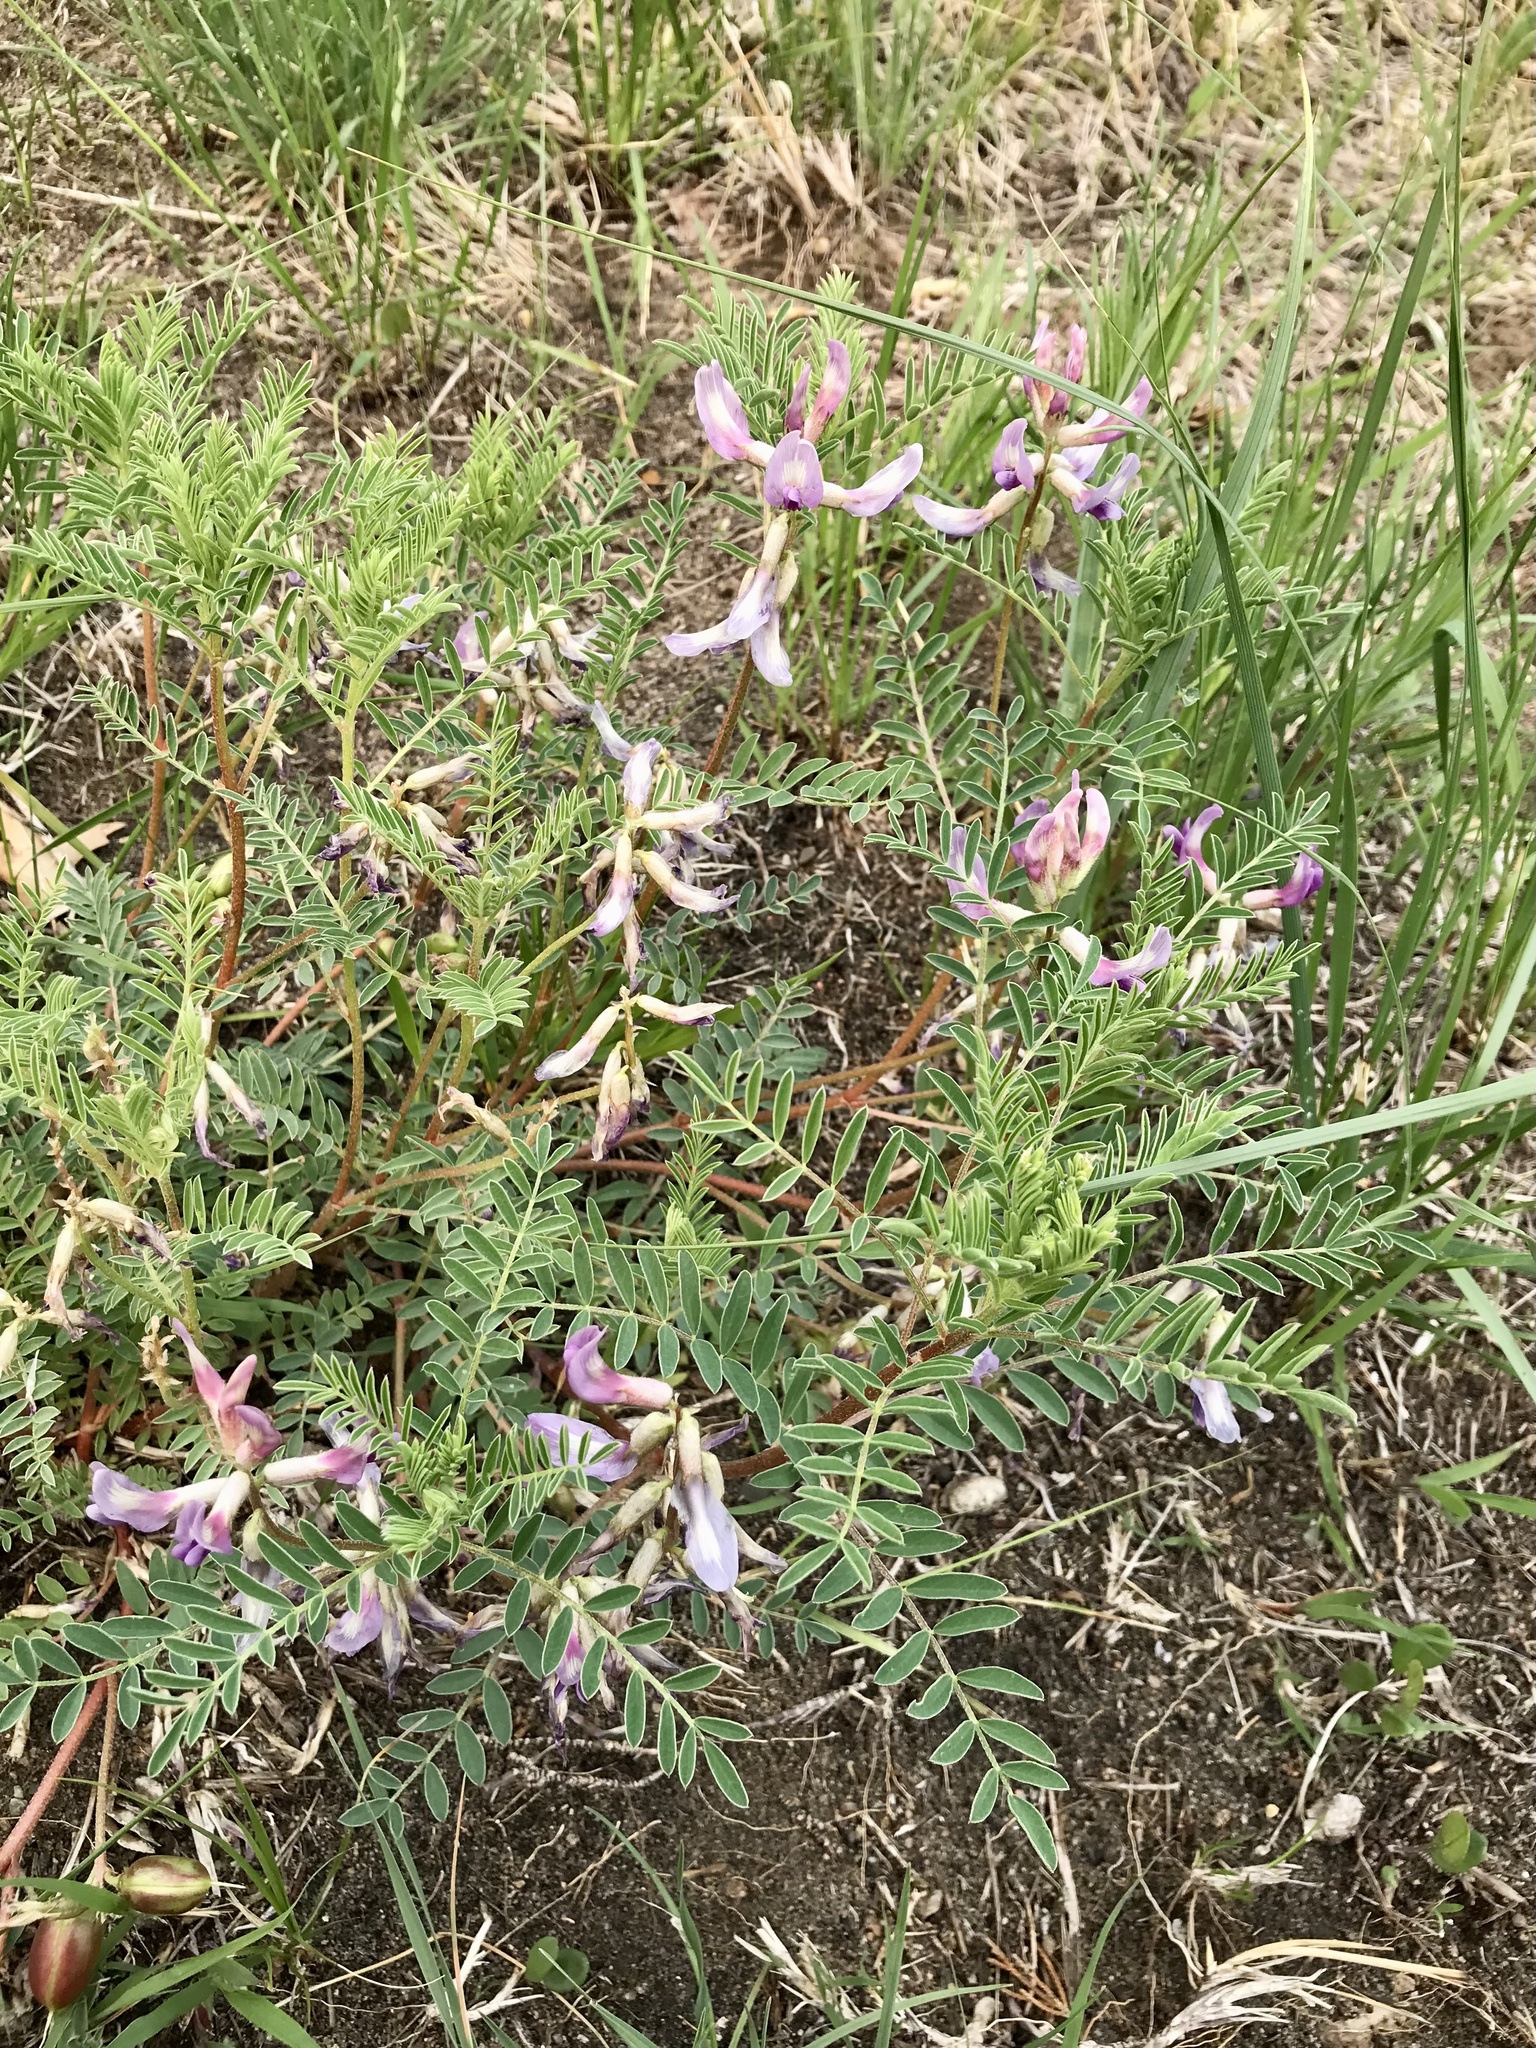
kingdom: Plantae
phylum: Tracheophyta
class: Magnoliopsida
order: Fabales
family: Fabaceae
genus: Astragalus
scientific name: Astragalus crassicarpus
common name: Ground-plum milk-vetch
